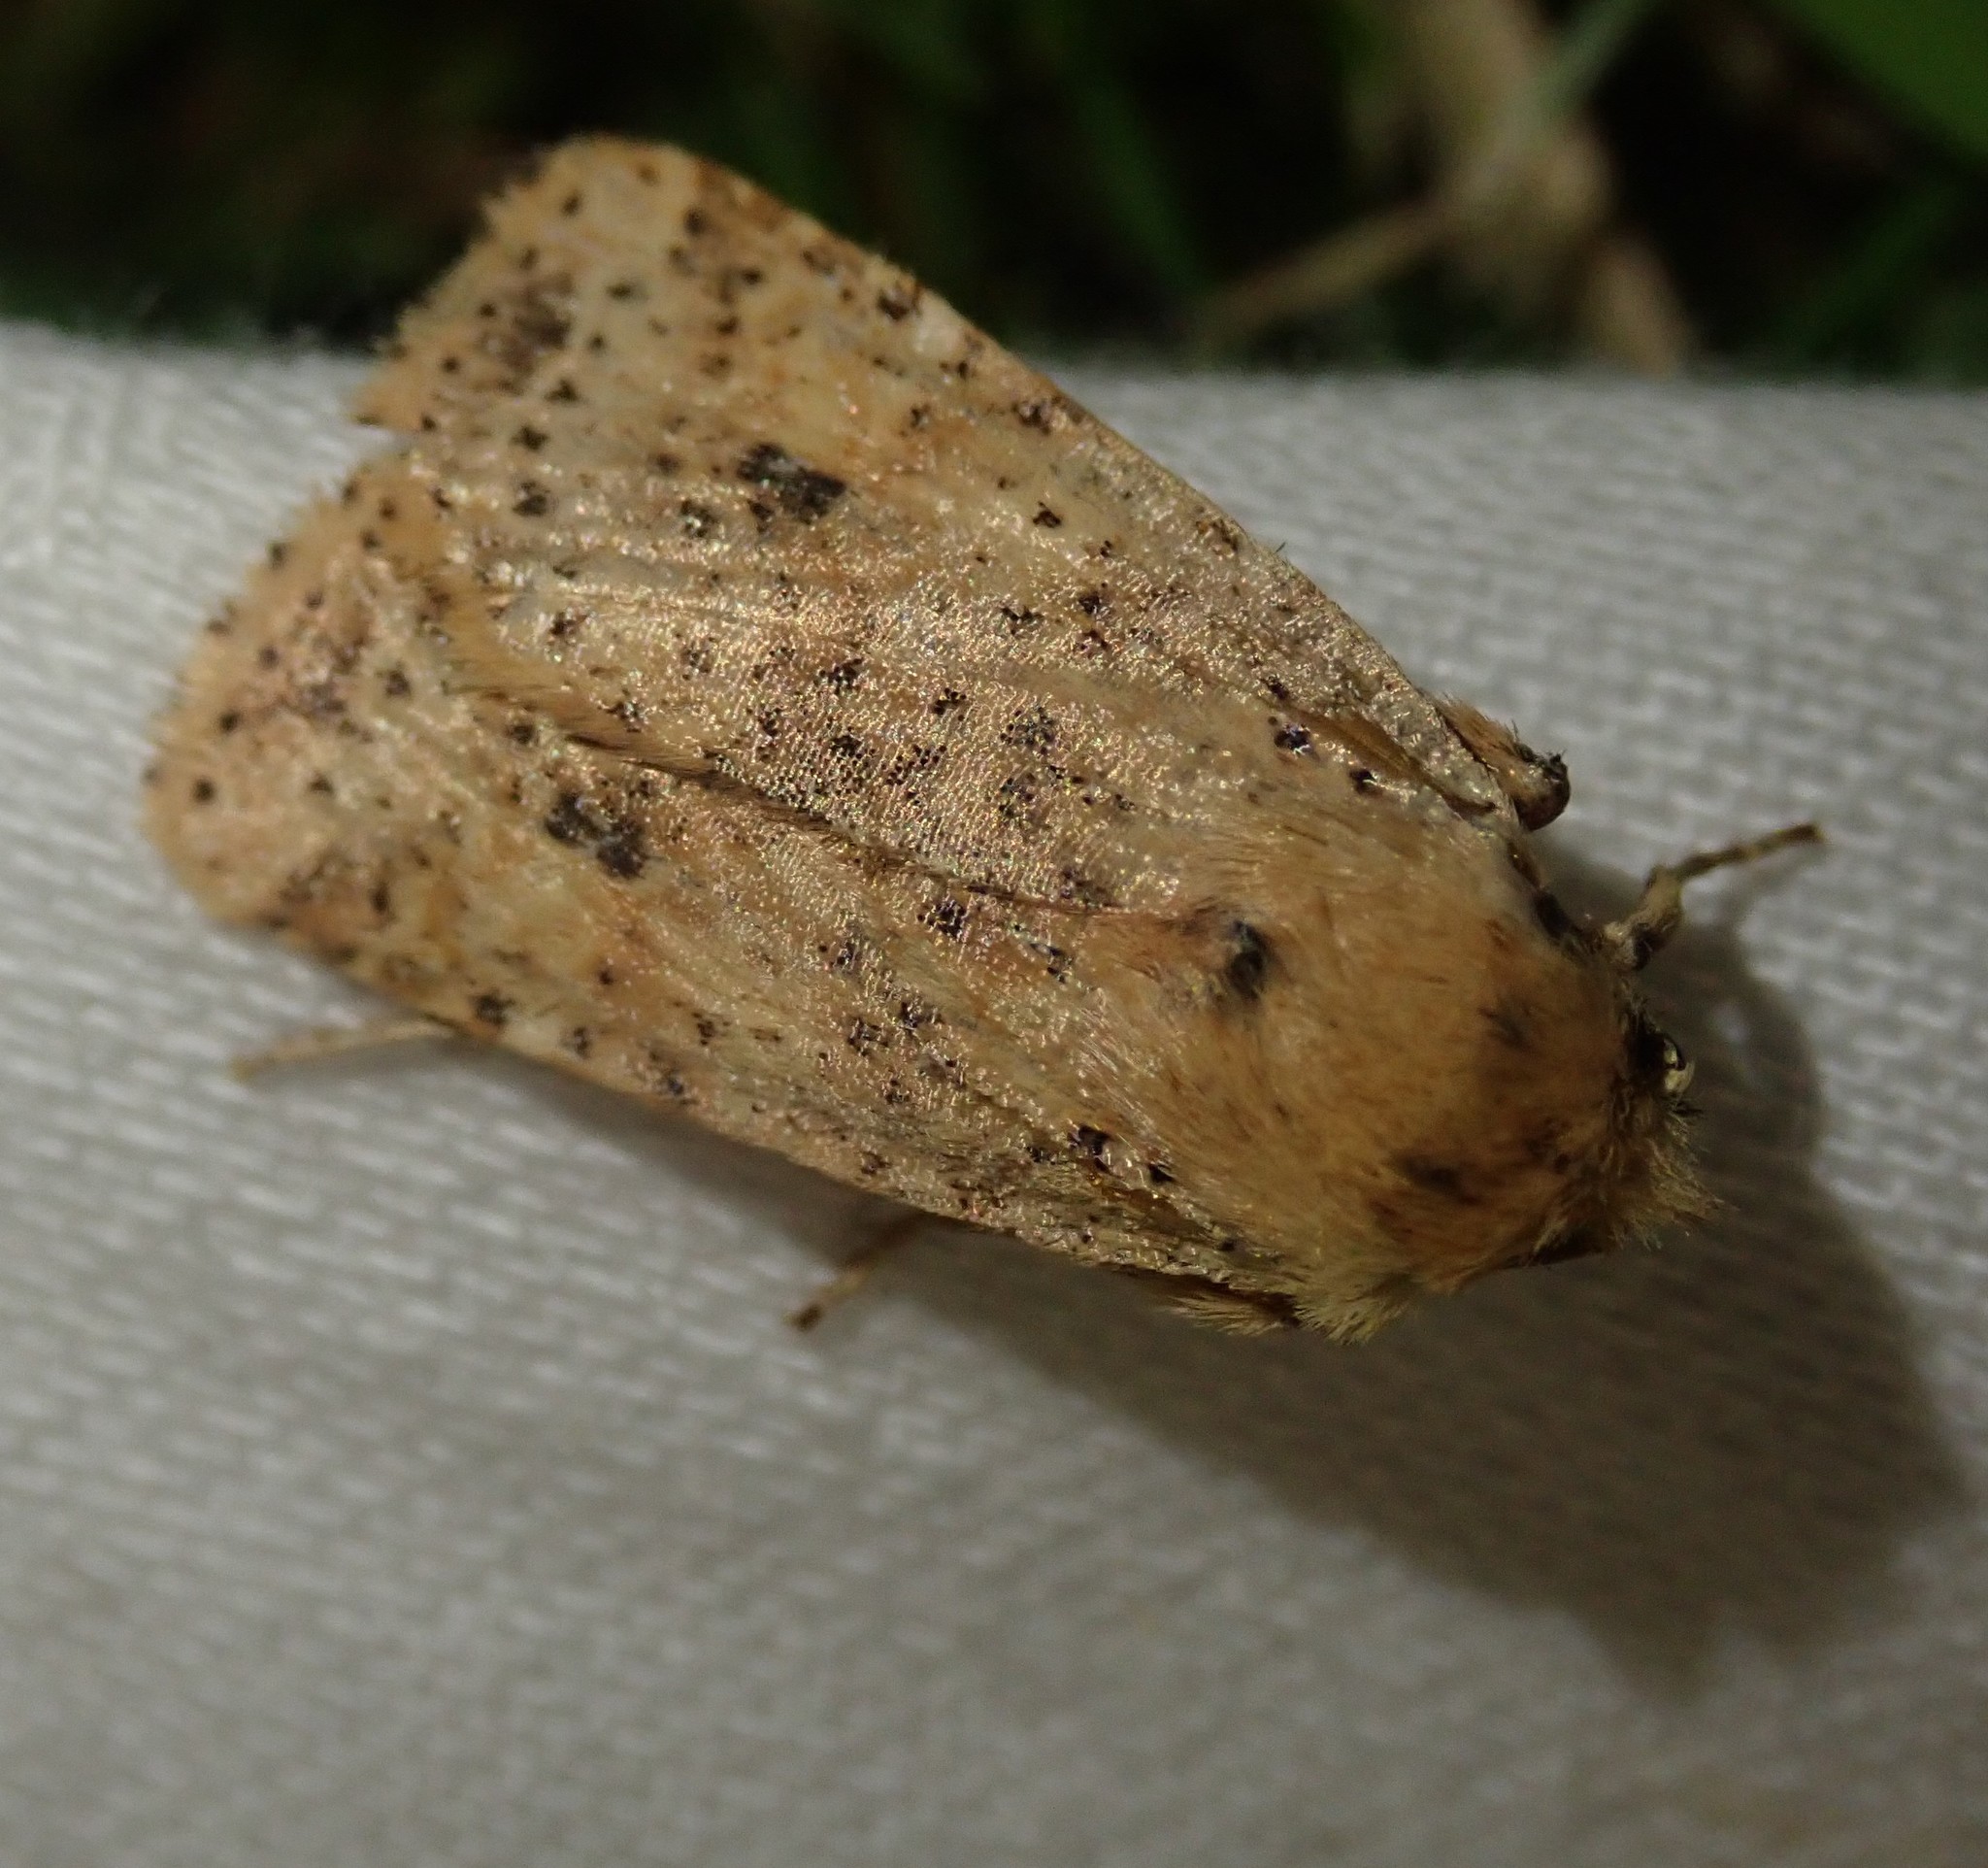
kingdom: Animalia
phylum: Arthropoda
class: Insecta
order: Lepidoptera
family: Noctuidae
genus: Conistra
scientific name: Conistra rubiginea
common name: Dotted chestnut
